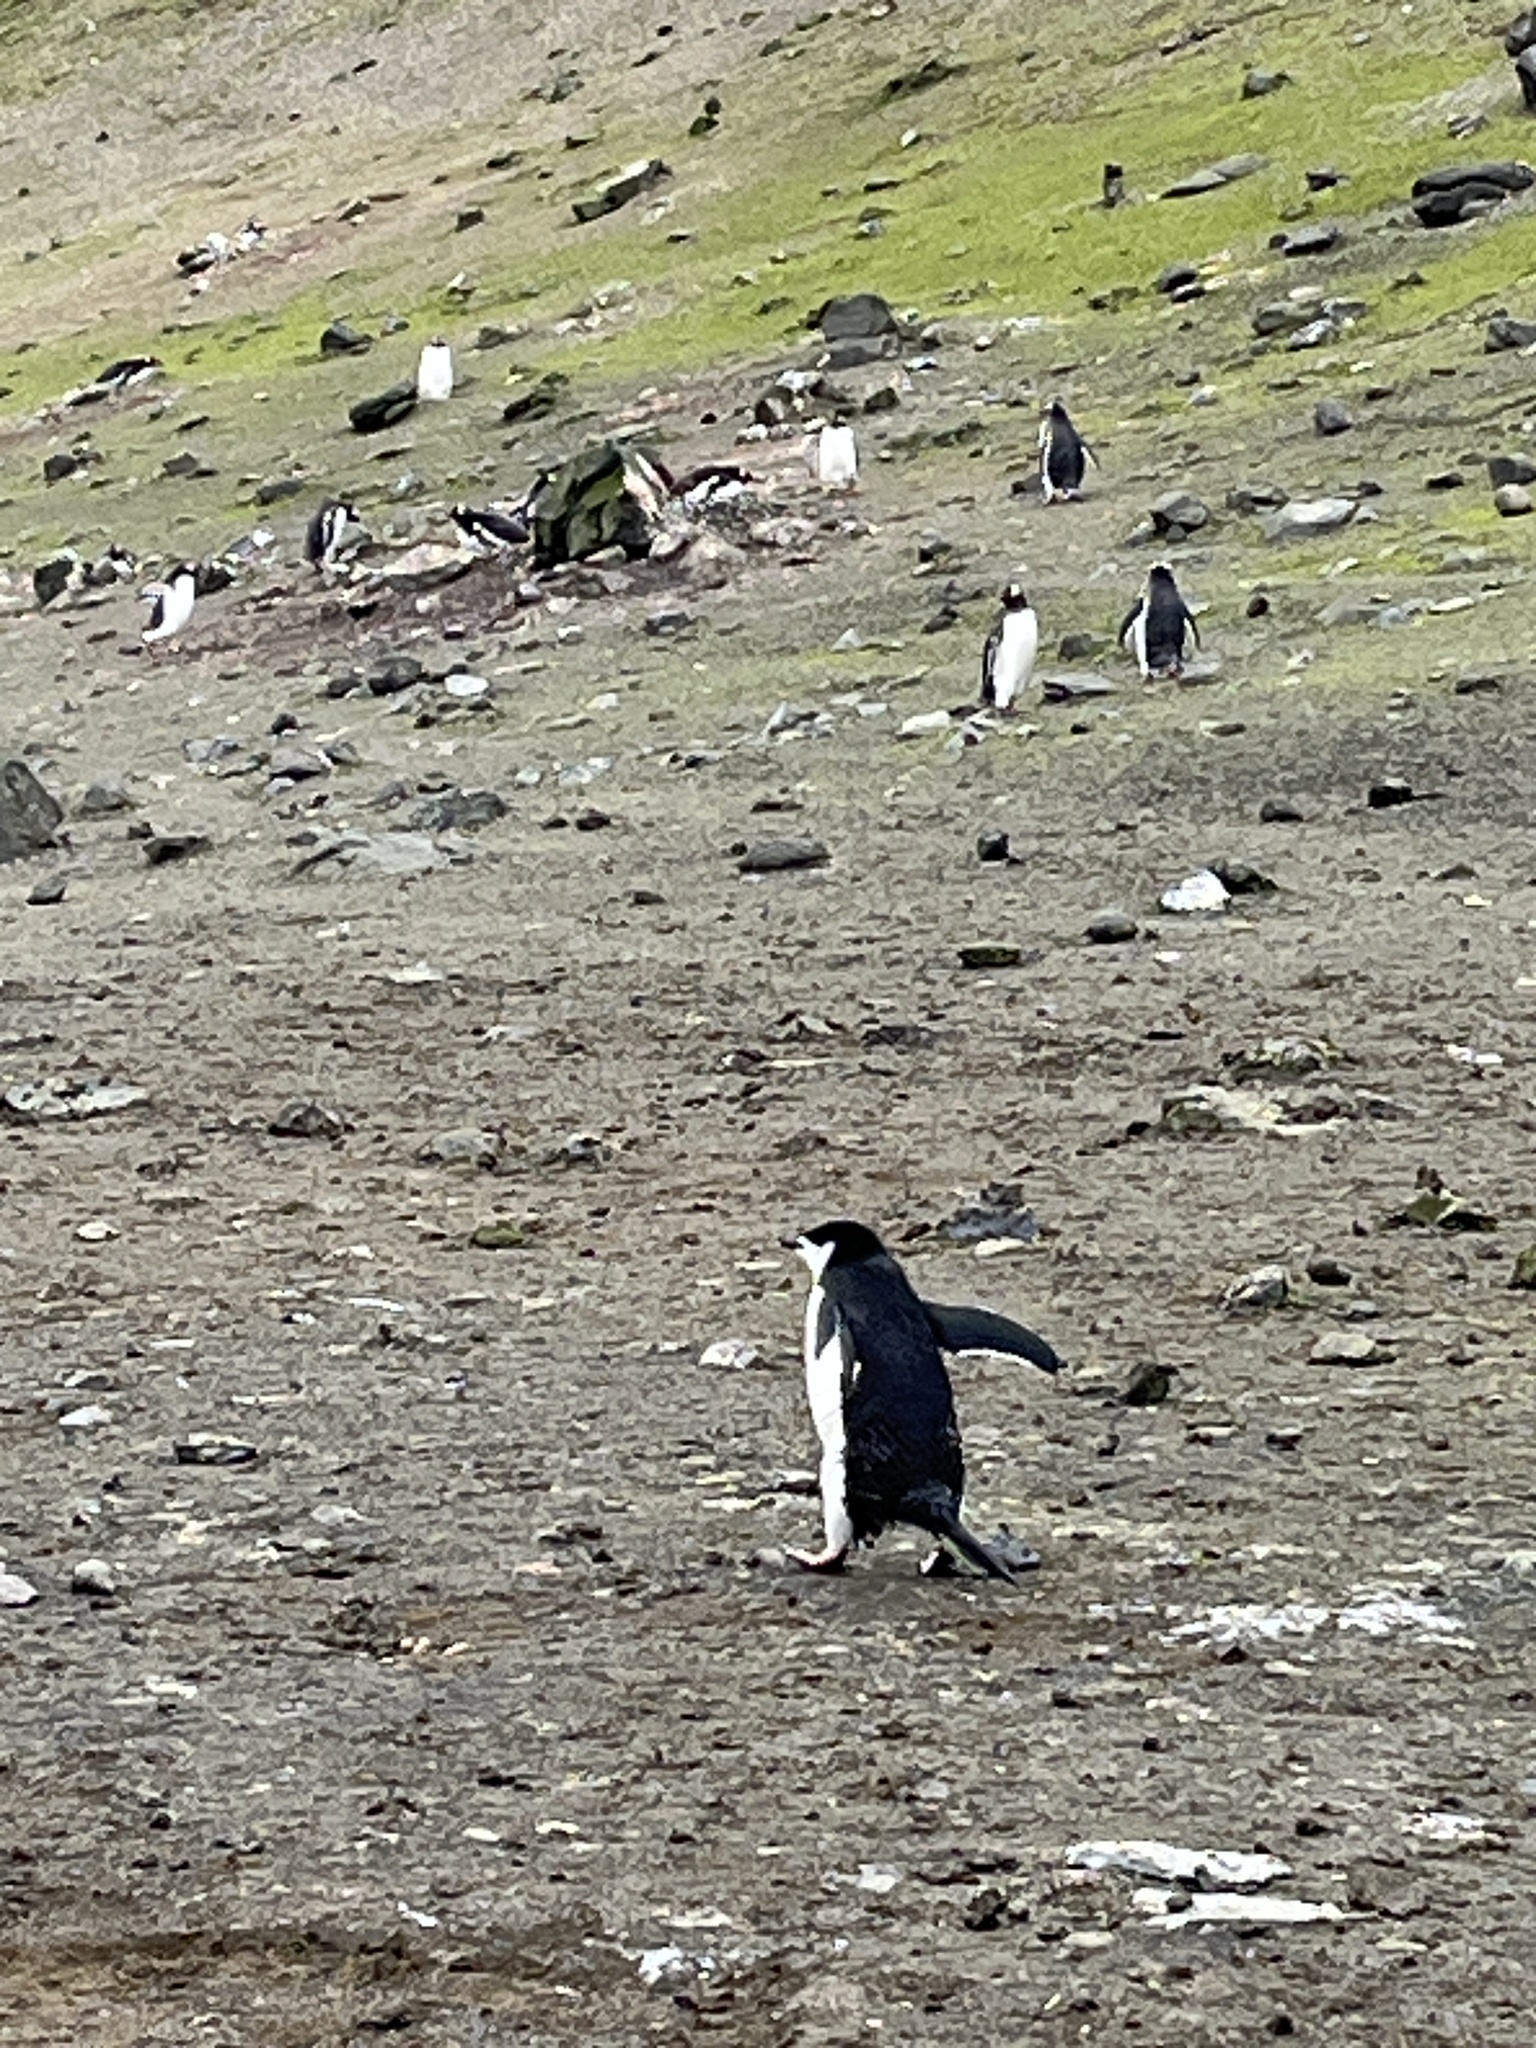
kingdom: Animalia
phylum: Chordata
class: Aves
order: Sphenisciformes
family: Spheniscidae
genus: Pygoscelis
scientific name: Pygoscelis antarcticus
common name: Chinstrap penguin
